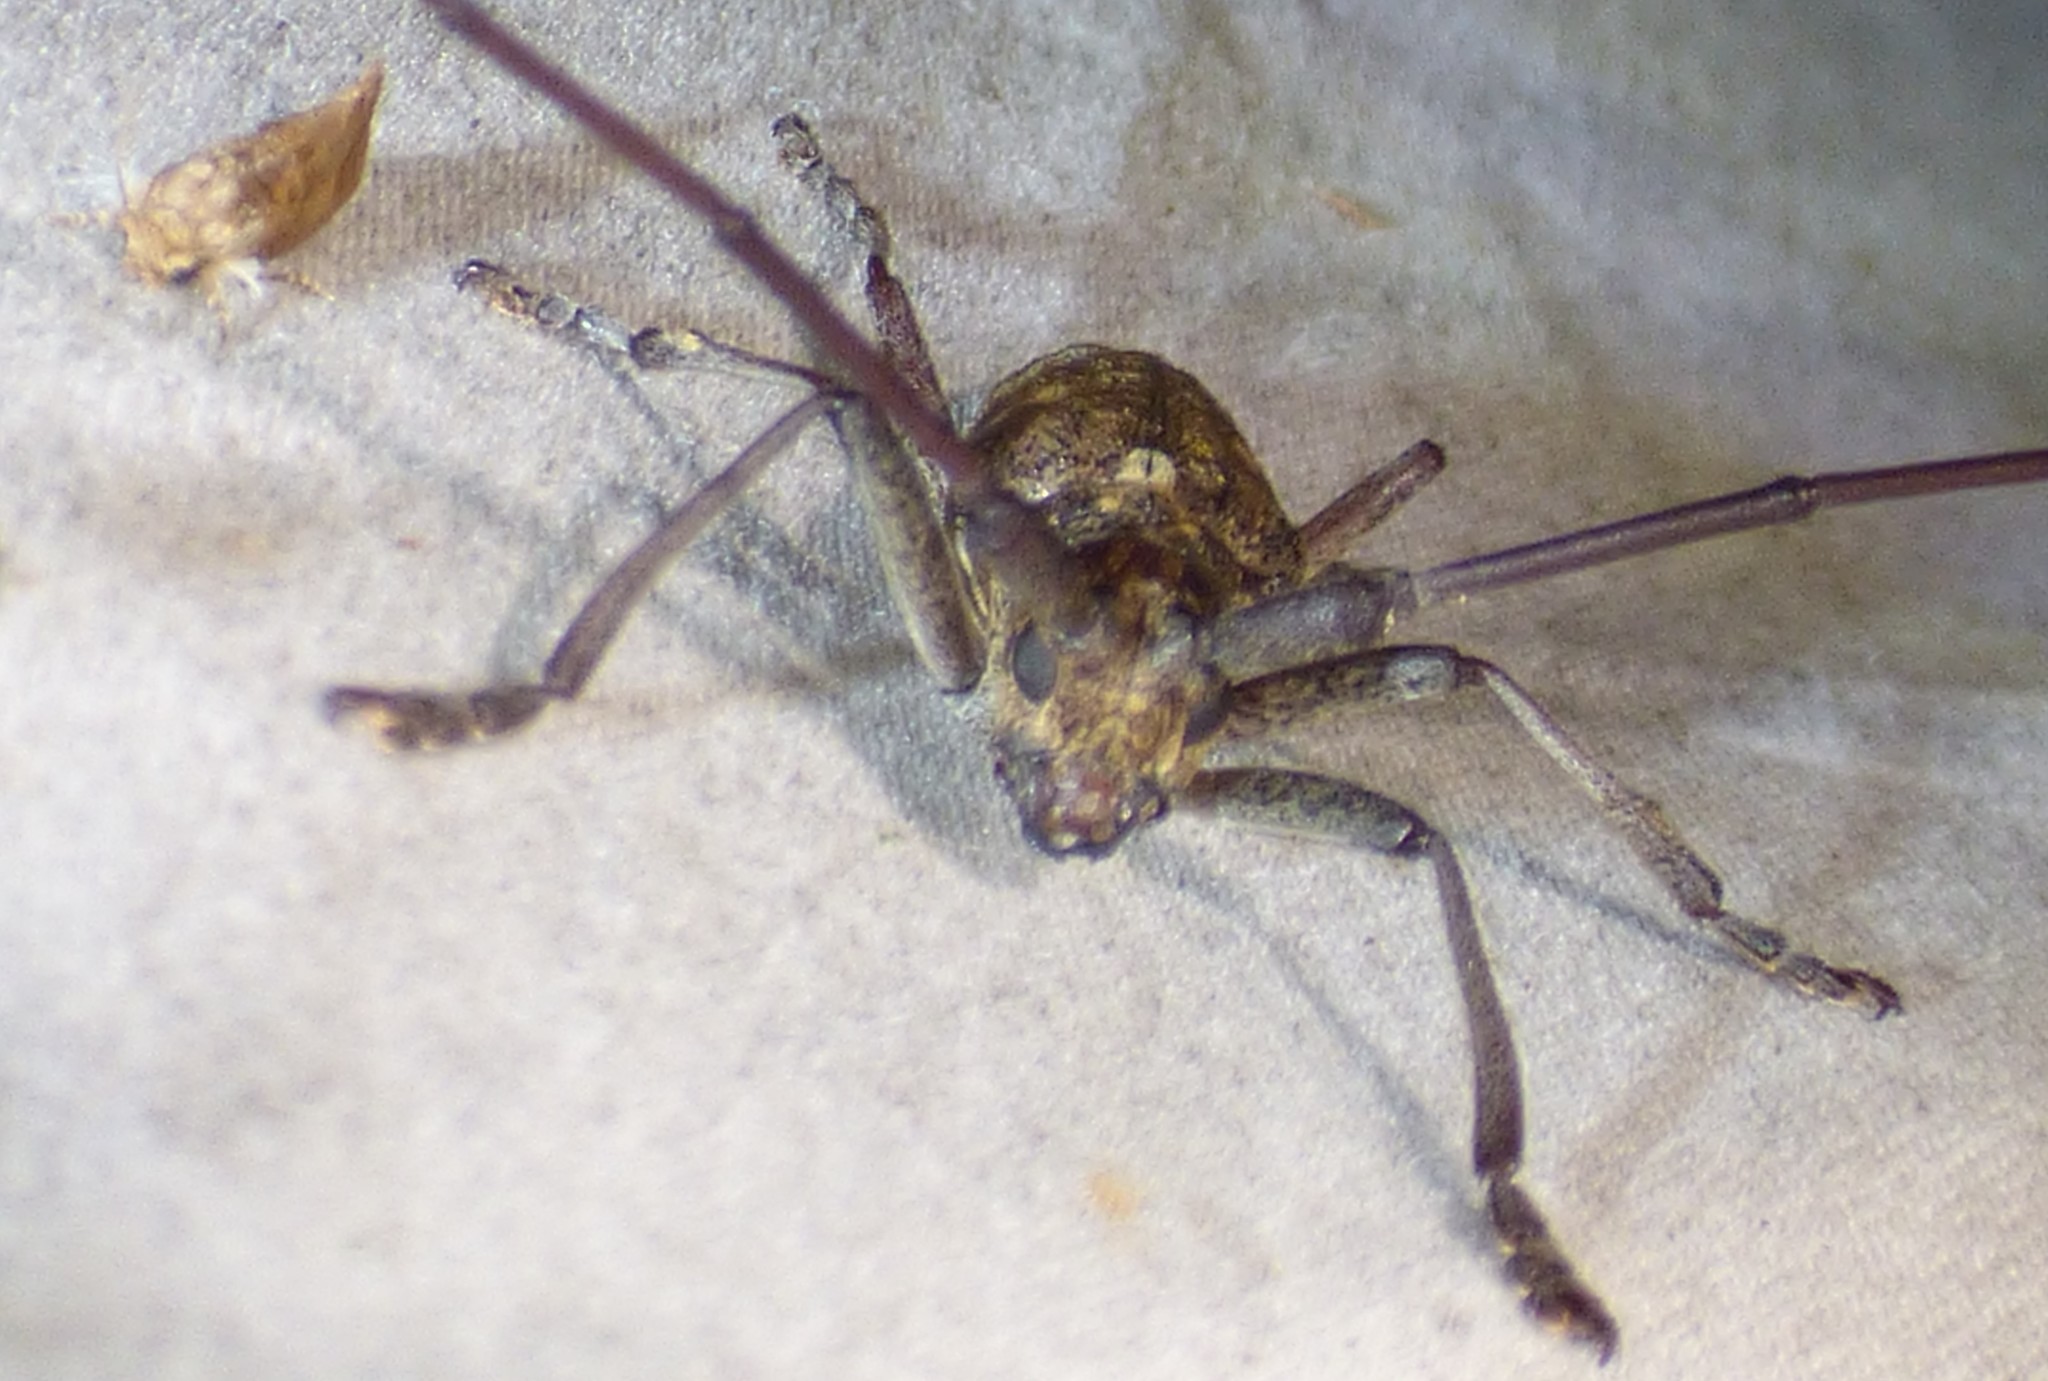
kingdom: Animalia
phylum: Arthropoda
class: Insecta
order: Coleoptera
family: Cerambycidae
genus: Monochamus
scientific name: Monochamus carolinensis
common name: Carolina pine sawyer
